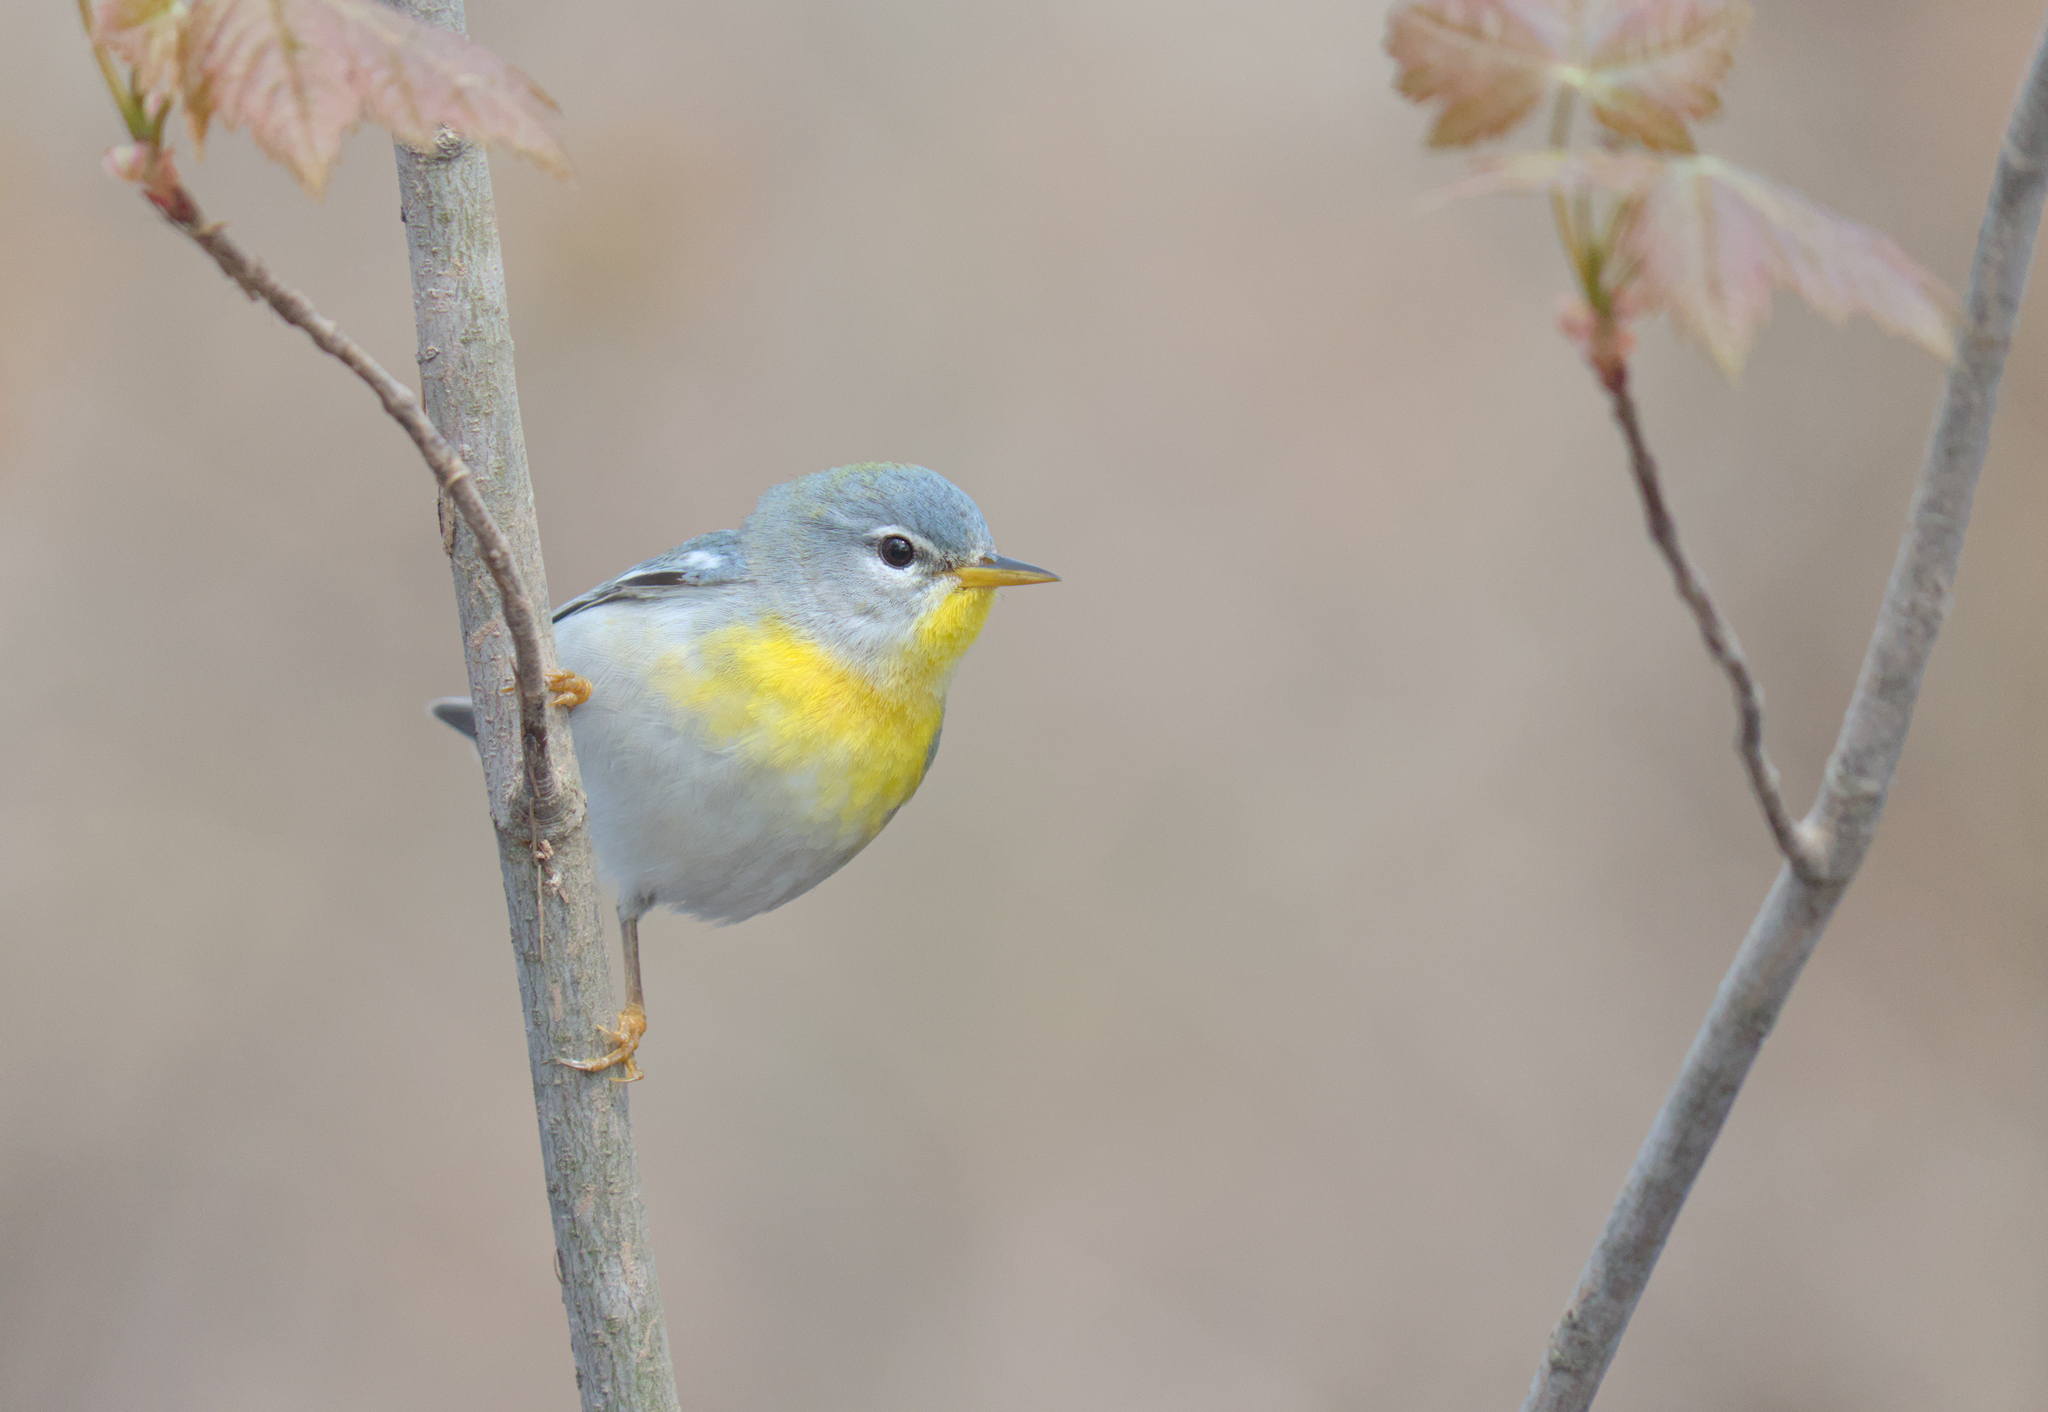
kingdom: Animalia
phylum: Chordata
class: Aves
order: Passeriformes
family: Parulidae
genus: Setophaga
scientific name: Setophaga americana
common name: Northern parula
